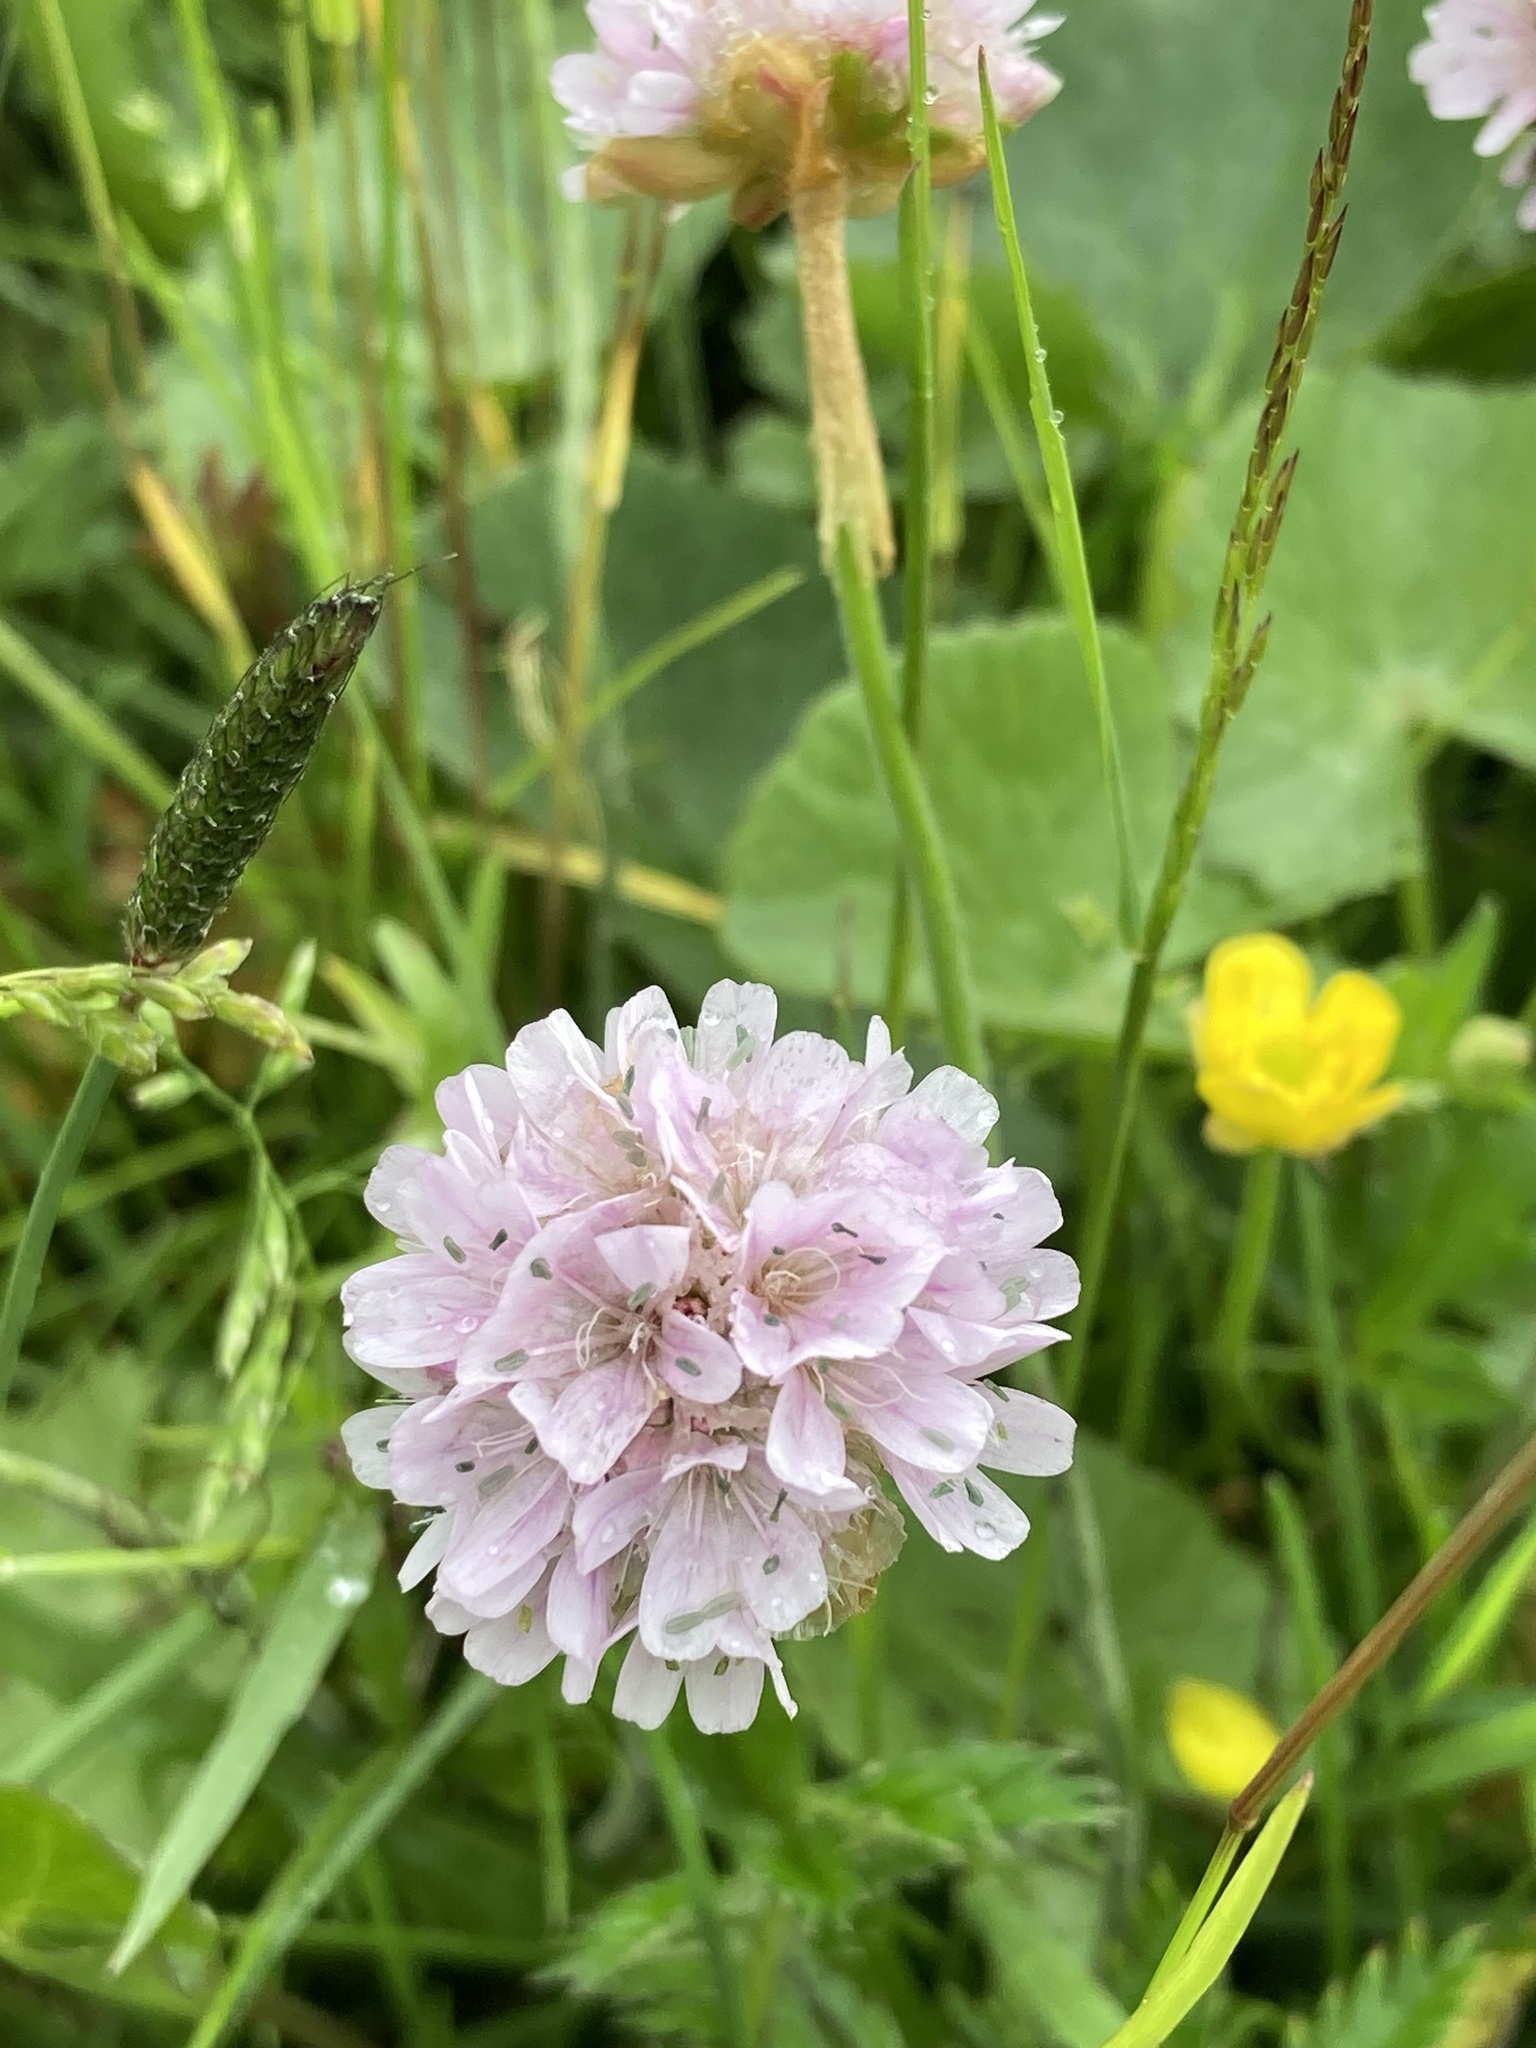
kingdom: Plantae
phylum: Tracheophyta
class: Magnoliopsida
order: Caryophyllales
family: Plumbaginaceae
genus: Armeria
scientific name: Armeria maritima
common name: Thrift
